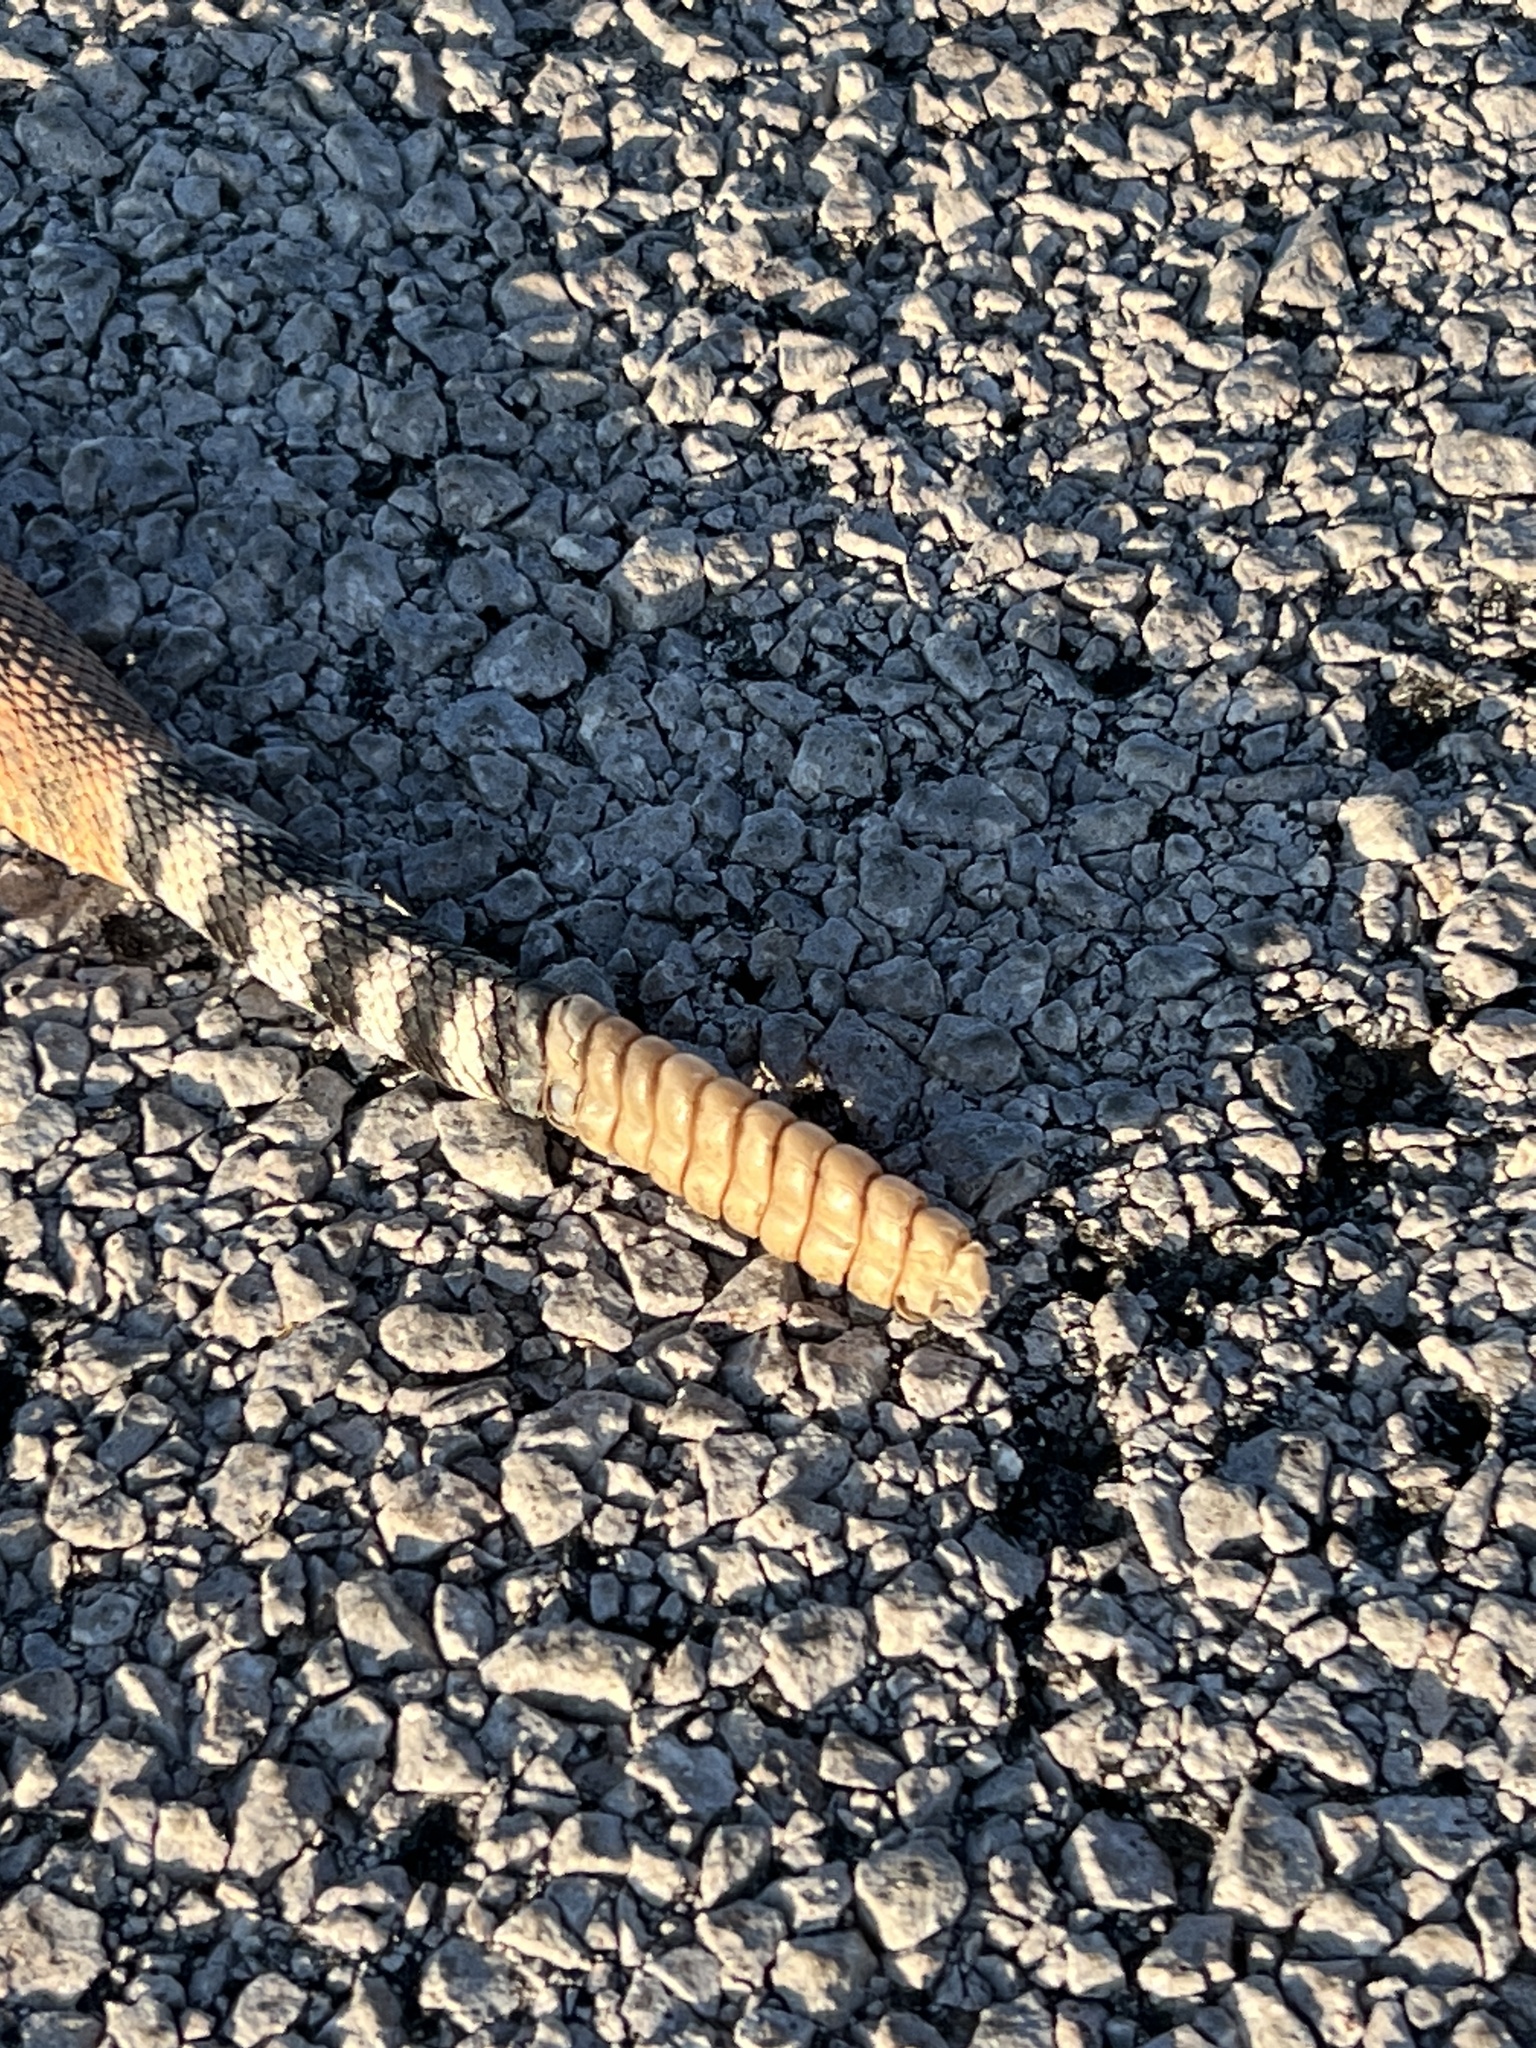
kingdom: Animalia
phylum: Chordata
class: Squamata
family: Viperidae
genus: Crotalus
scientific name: Crotalus atrox
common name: Western diamond-backed rattlesnake
